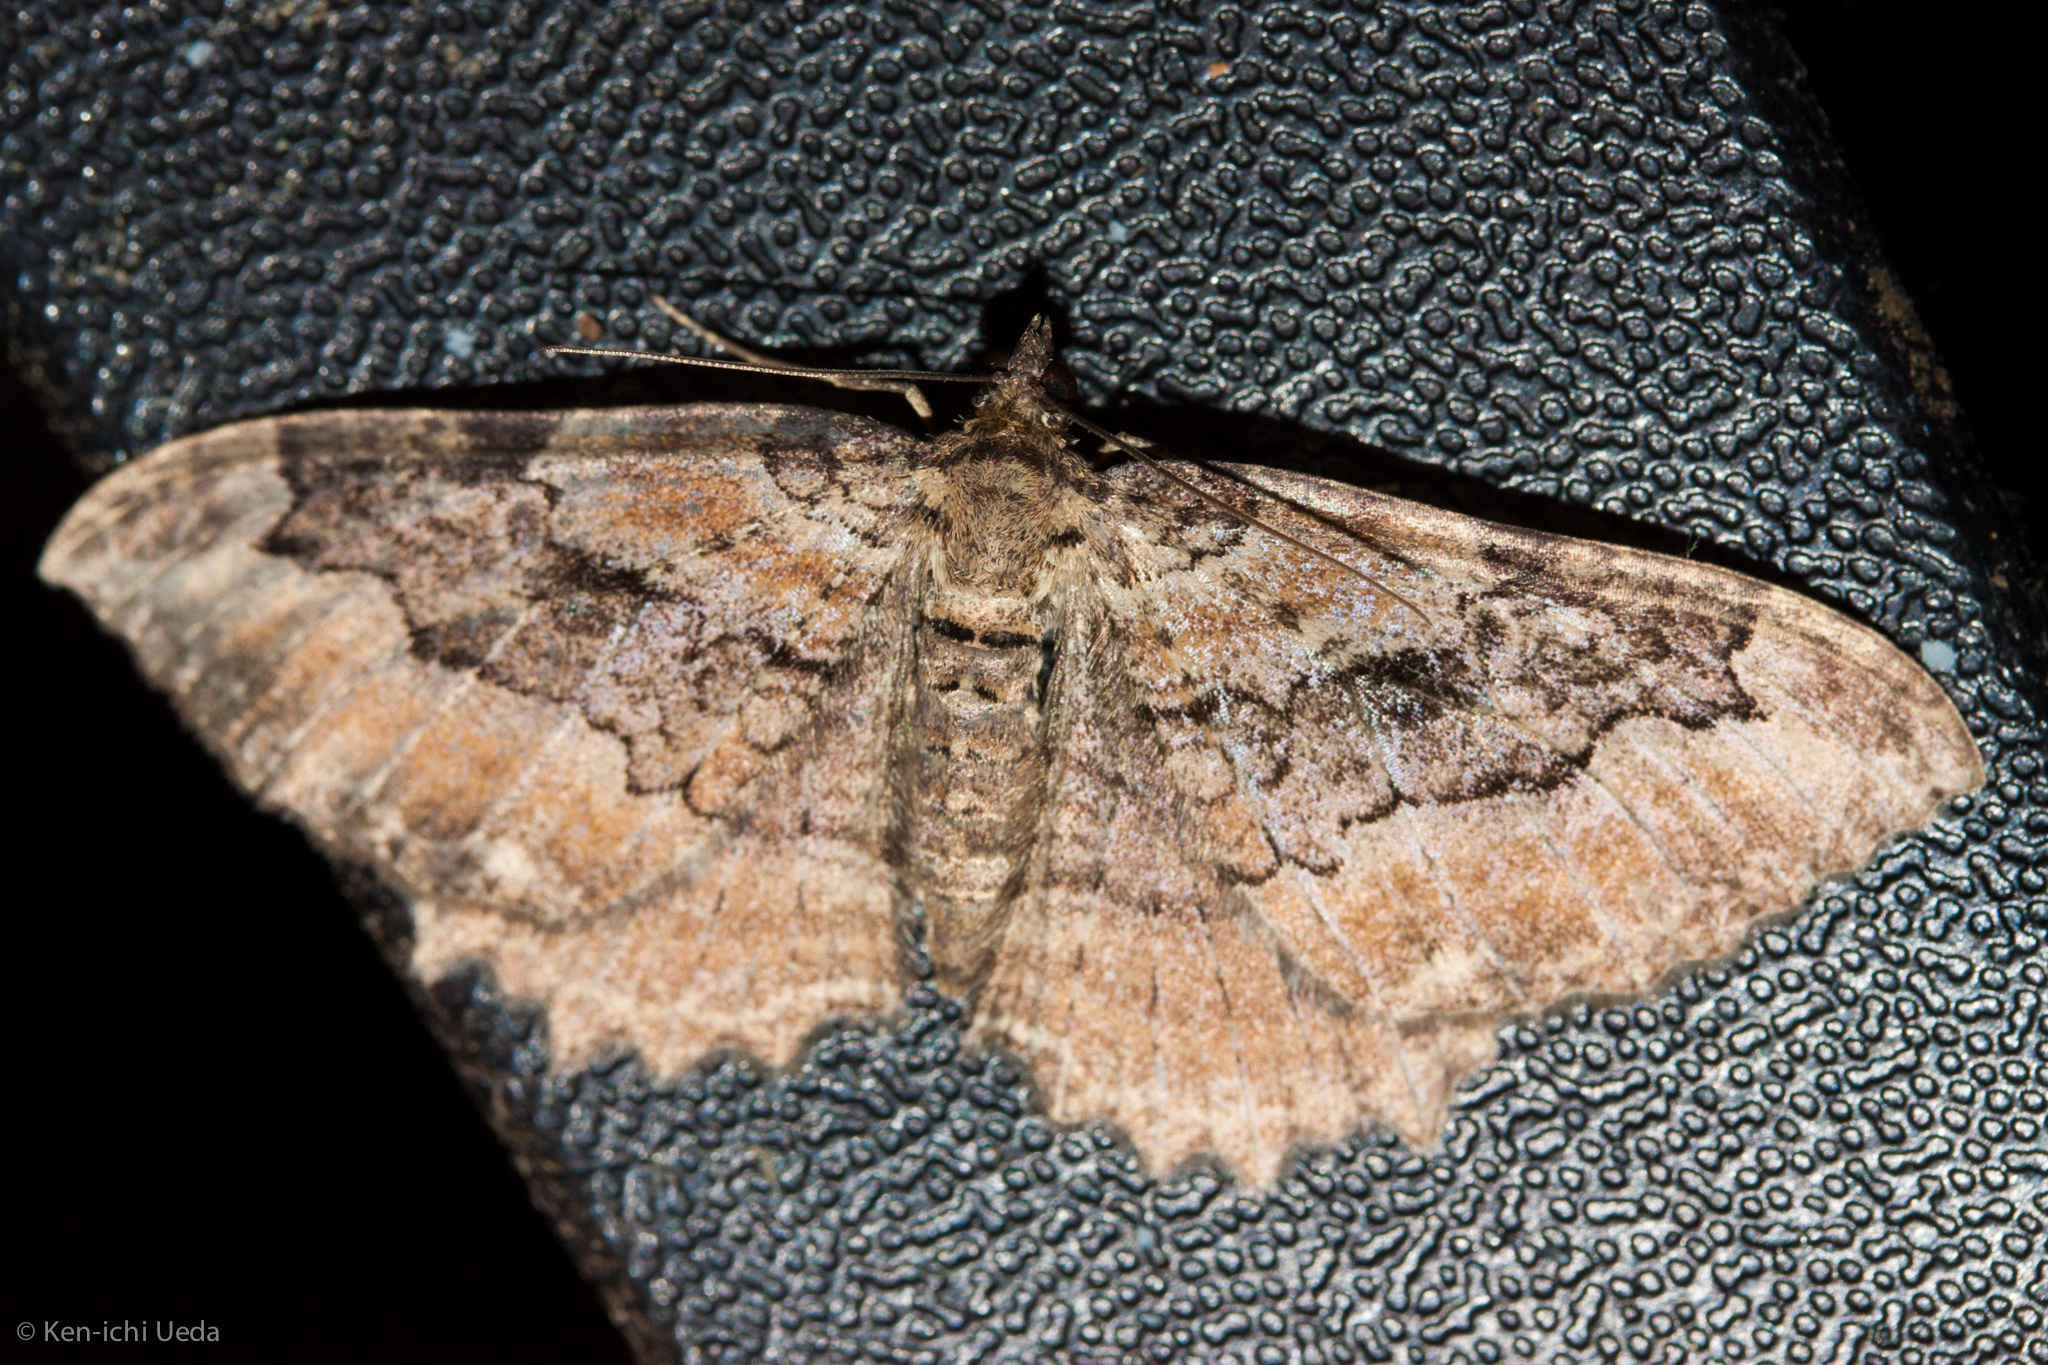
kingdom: Animalia
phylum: Arthropoda
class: Insecta
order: Lepidoptera
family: Geometridae
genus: Rheumaptera
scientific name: Rheumaptera
